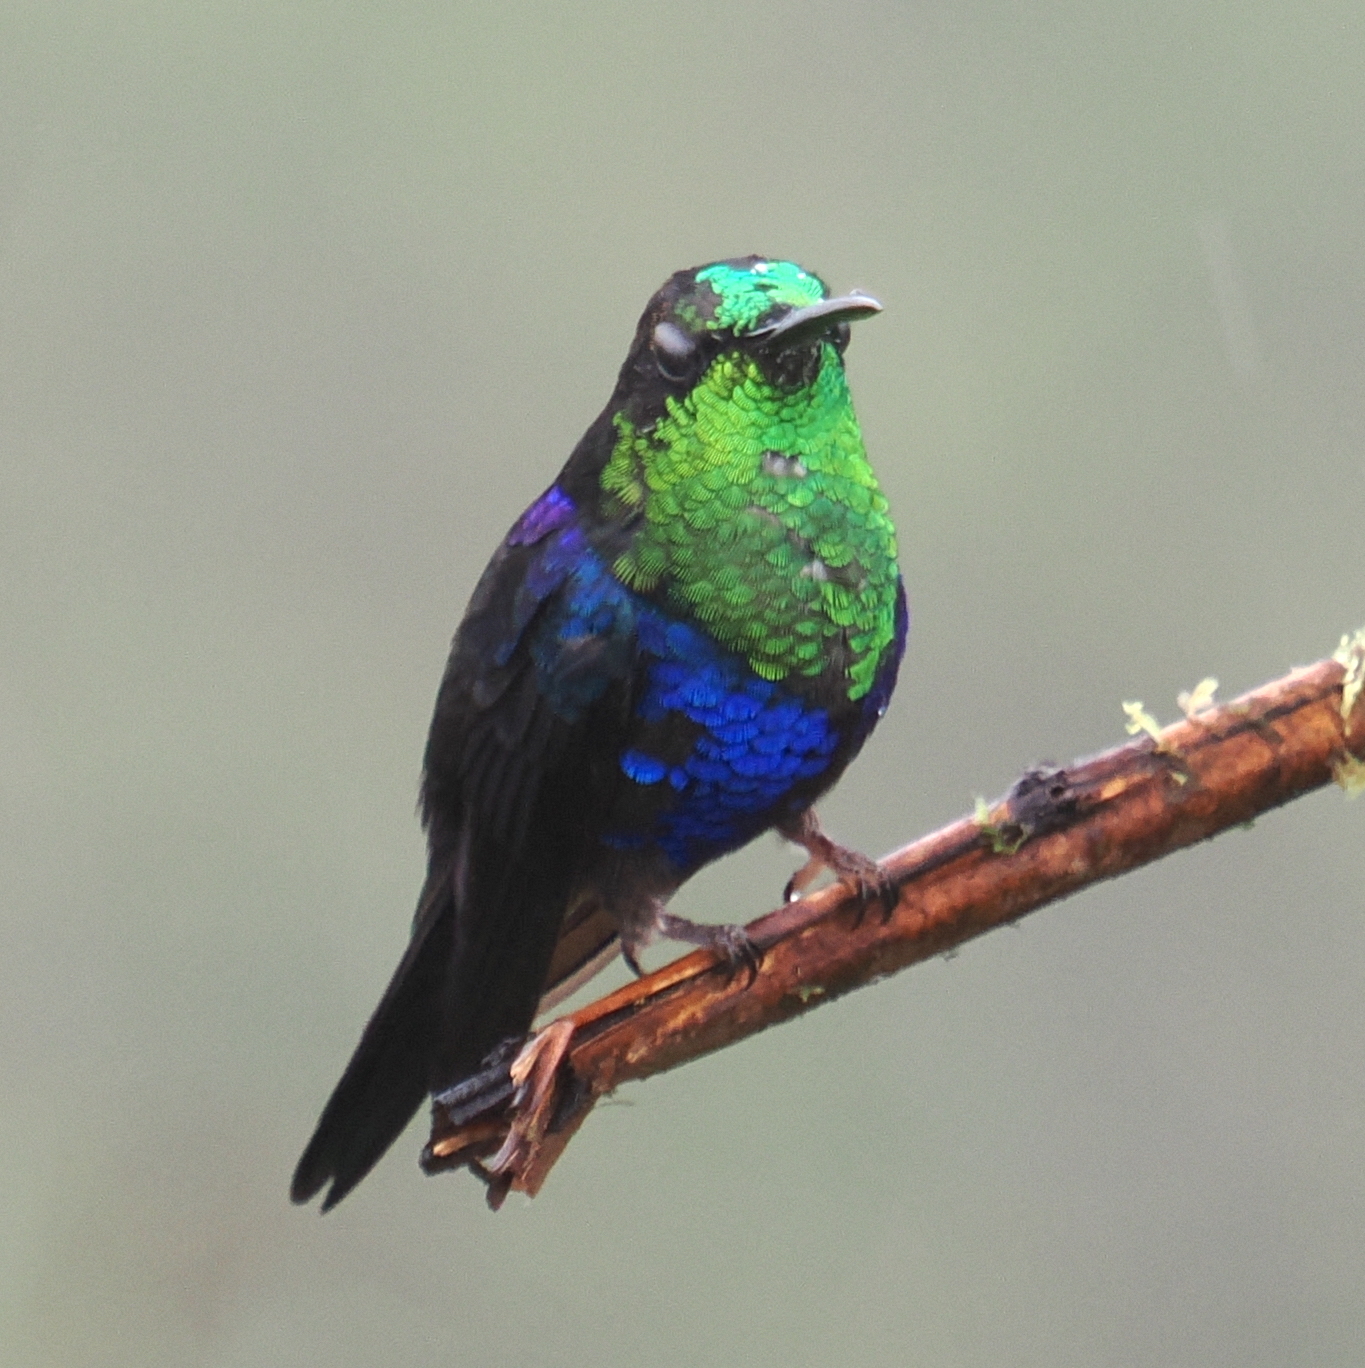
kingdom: Animalia
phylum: Chordata
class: Aves
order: Apodiformes
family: Trochilidae
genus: Thalurania
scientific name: Thalurania colombica
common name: Crowned woodnymph
